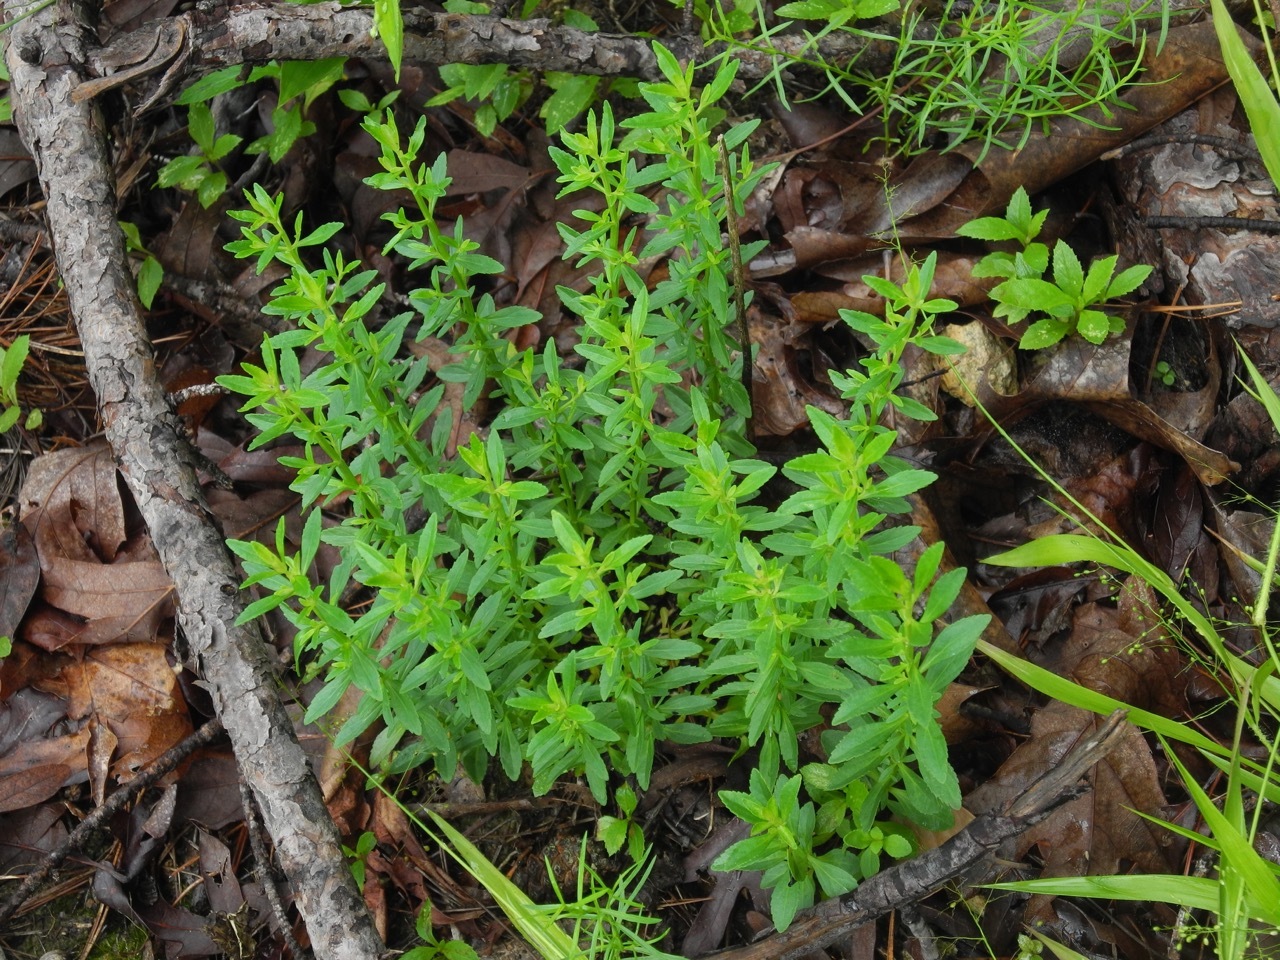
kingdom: Plantae
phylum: Tracheophyta
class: Magnoliopsida
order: Lamiales
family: Plantaginaceae
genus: Mecardonia
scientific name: Mecardonia acuminata
